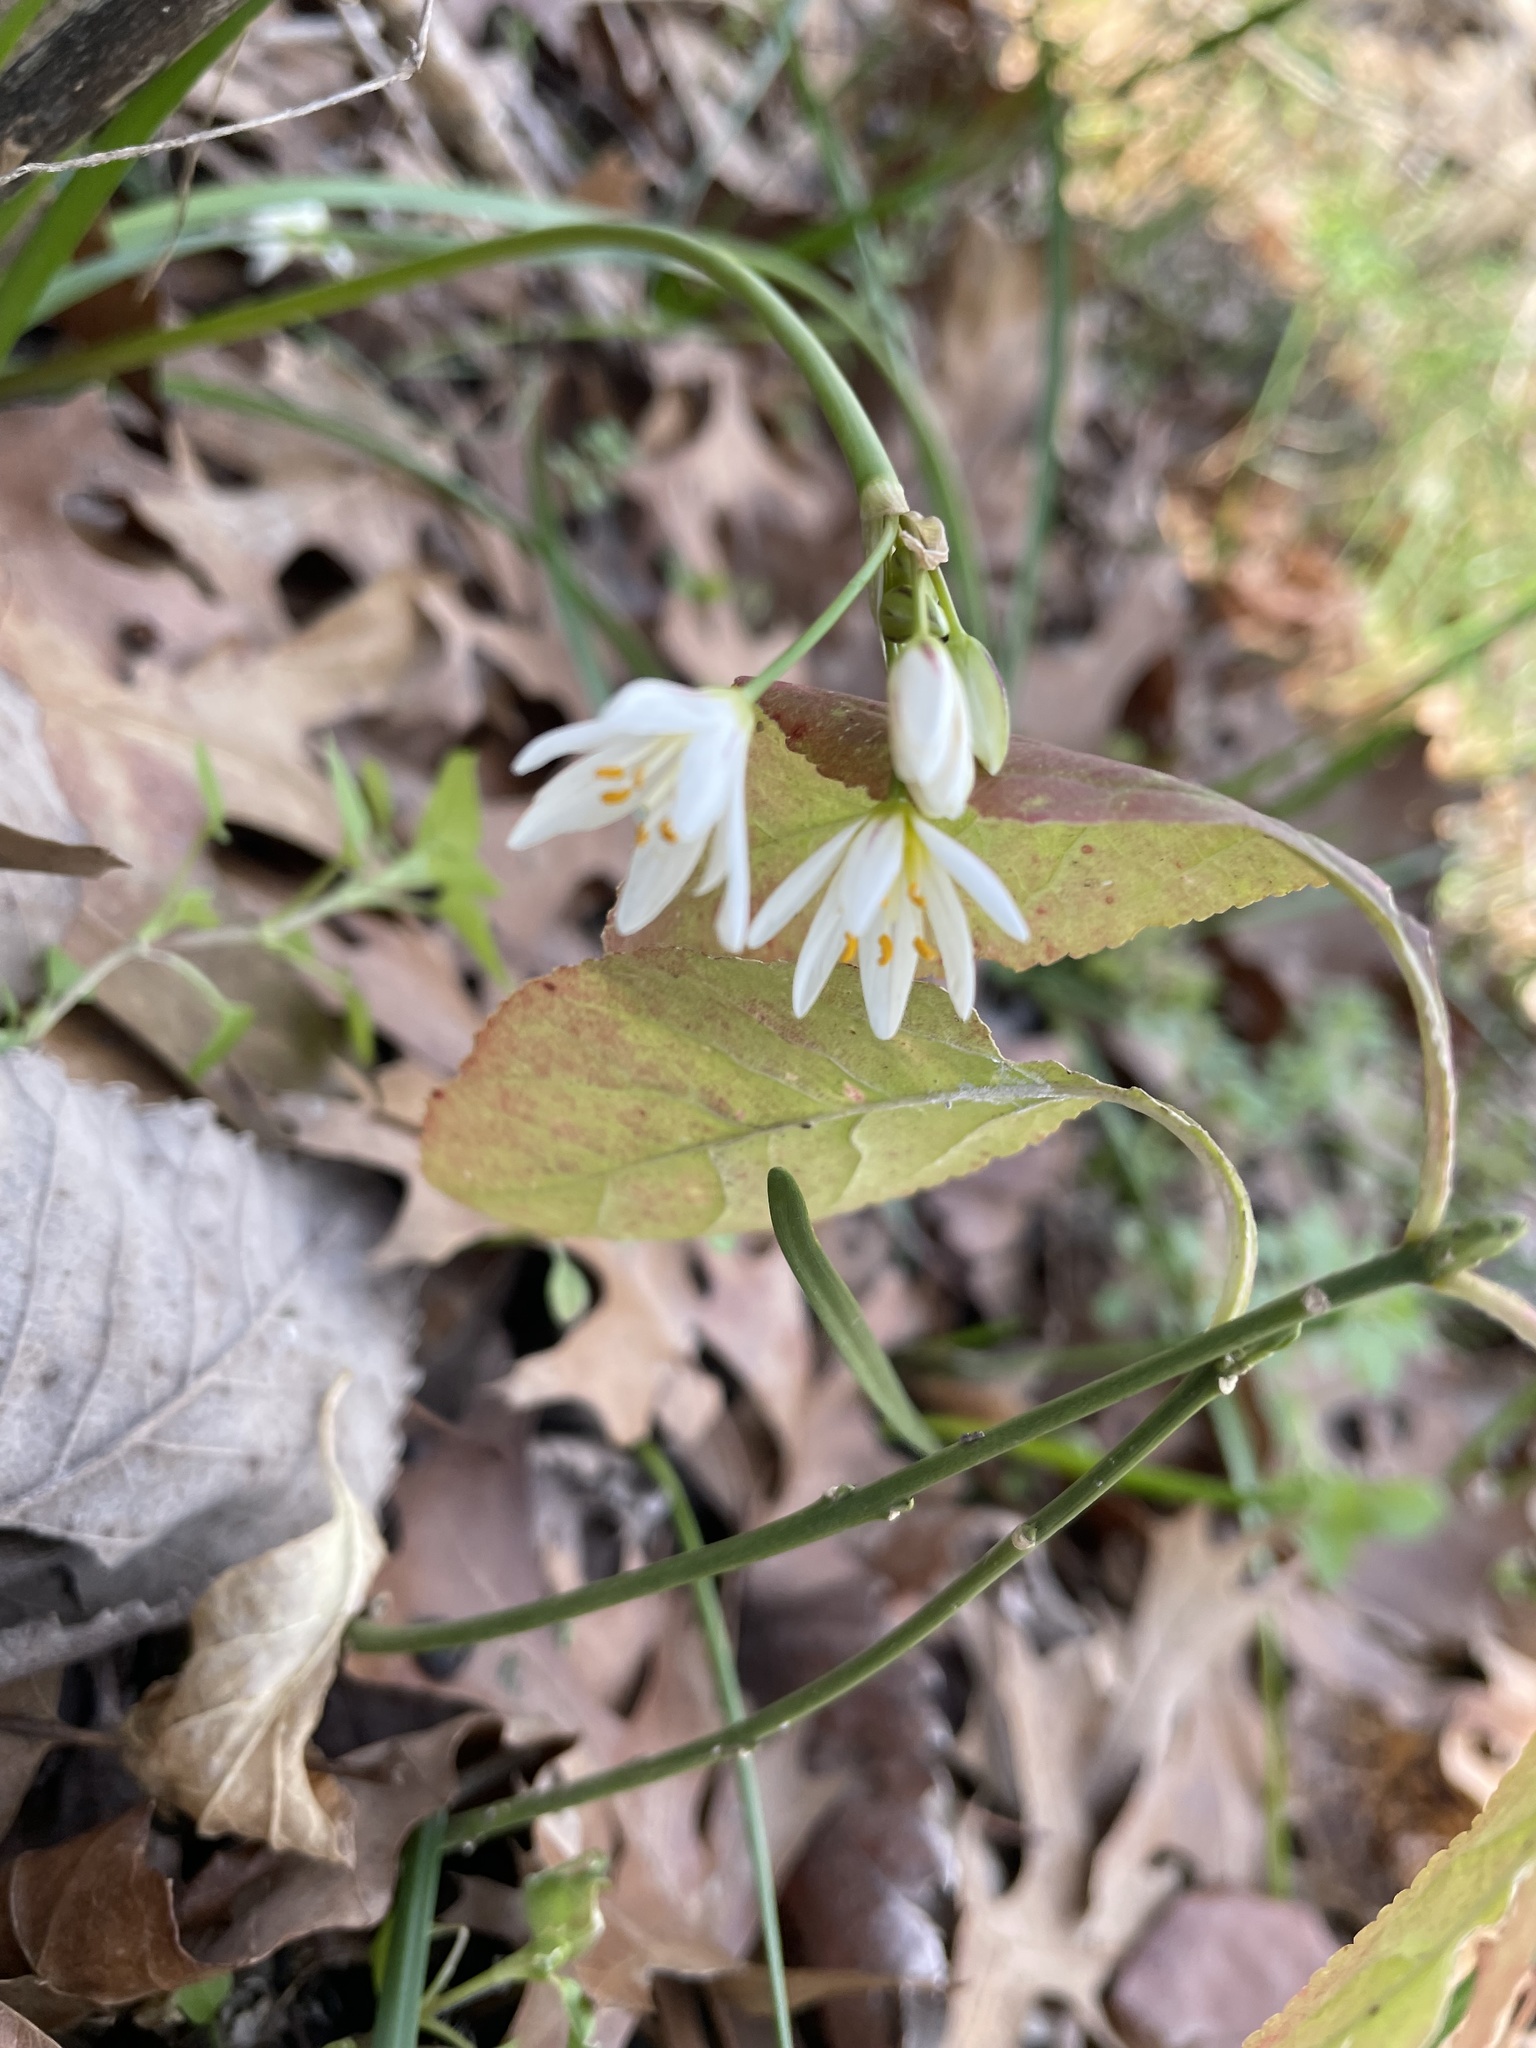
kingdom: Plantae
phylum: Tracheophyta
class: Liliopsida
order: Asparagales
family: Amaryllidaceae
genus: Nothoscordum
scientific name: Nothoscordum bivalve
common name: Crow-poison
